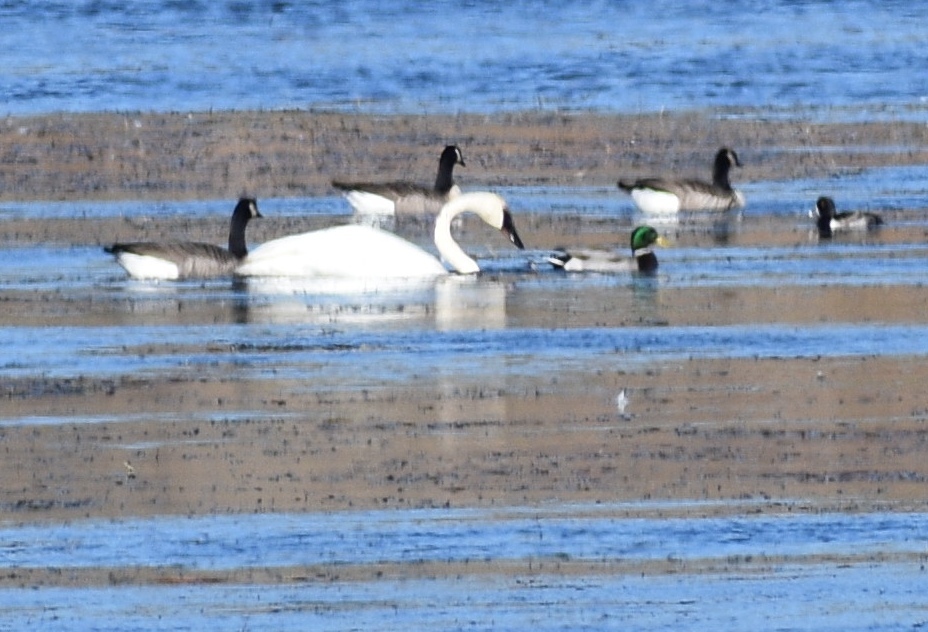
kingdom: Animalia
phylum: Chordata
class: Aves
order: Anseriformes
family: Anatidae
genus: Aythya
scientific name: Aythya collaris
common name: Ring-necked duck
